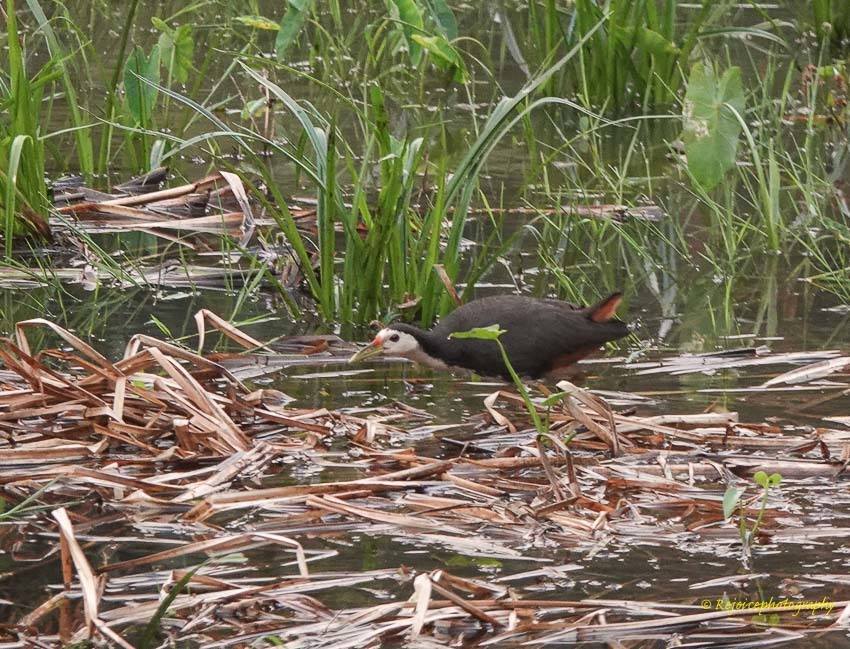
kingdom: Animalia
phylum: Chordata
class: Aves
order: Gruiformes
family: Rallidae
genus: Amaurornis
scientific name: Amaurornis phoenicurus
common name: White-breasted waterhen
